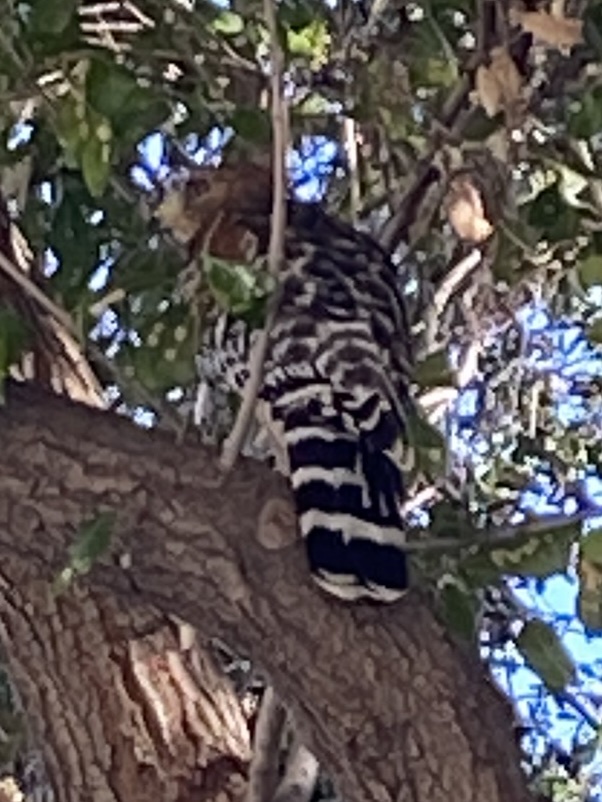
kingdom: Animalia
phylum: Chordata
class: Aves
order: Accipitriformes
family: Accipitridae
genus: Buteo
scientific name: Buteo lineatus
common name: Red-shouldered hawk
